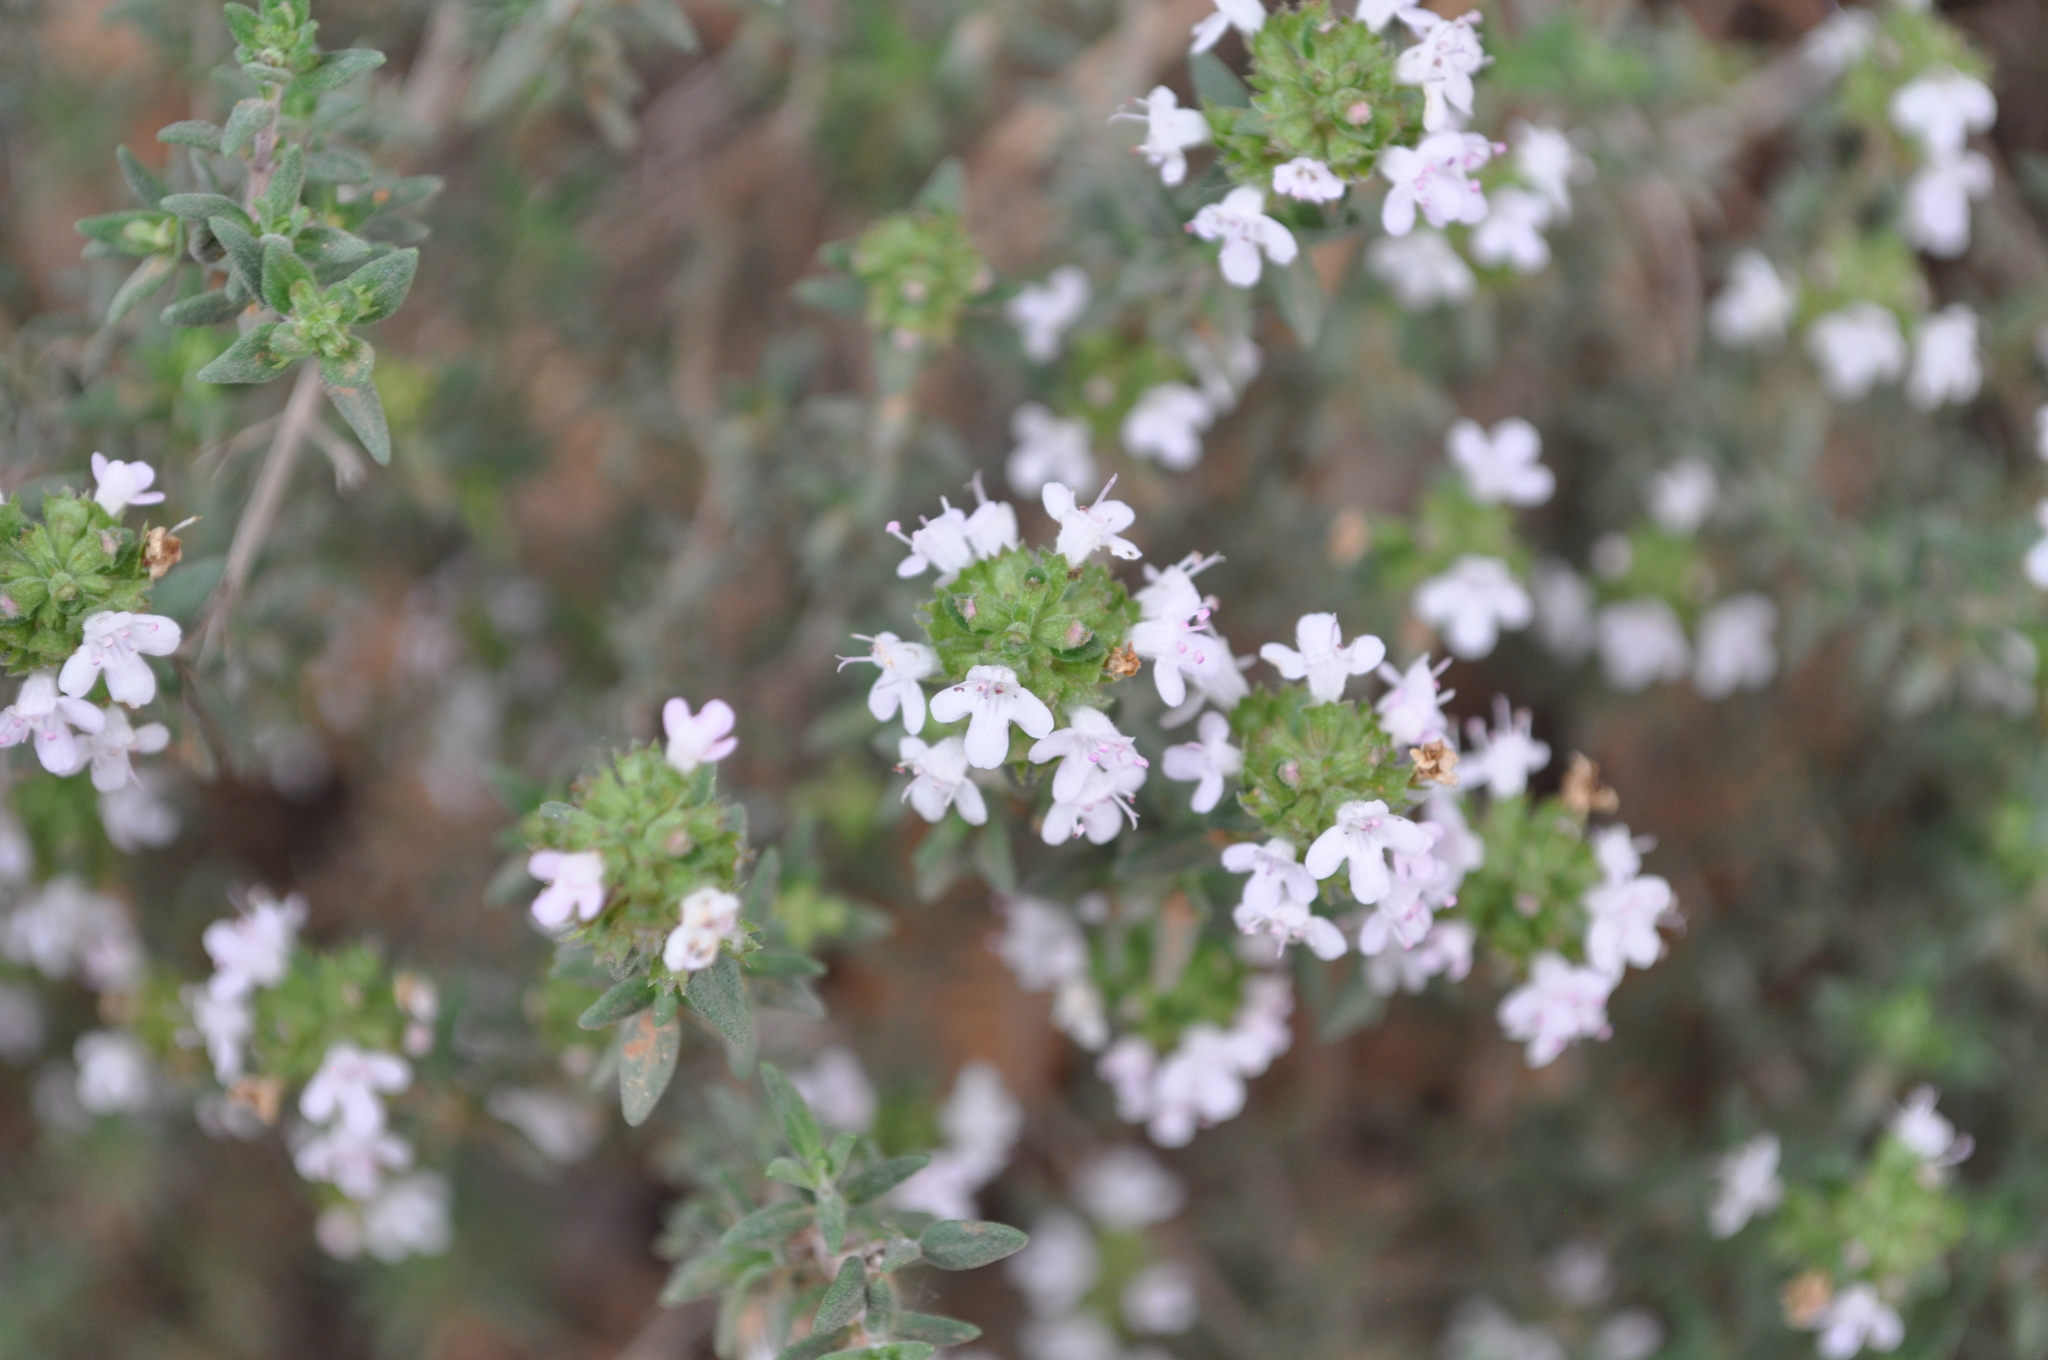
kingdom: Plantae
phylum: Tracheophyta
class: Magnoliopsida
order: Lamiales
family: Lamiaceae
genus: Thymus
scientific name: Thymus vulgaris
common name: Garden thyme
